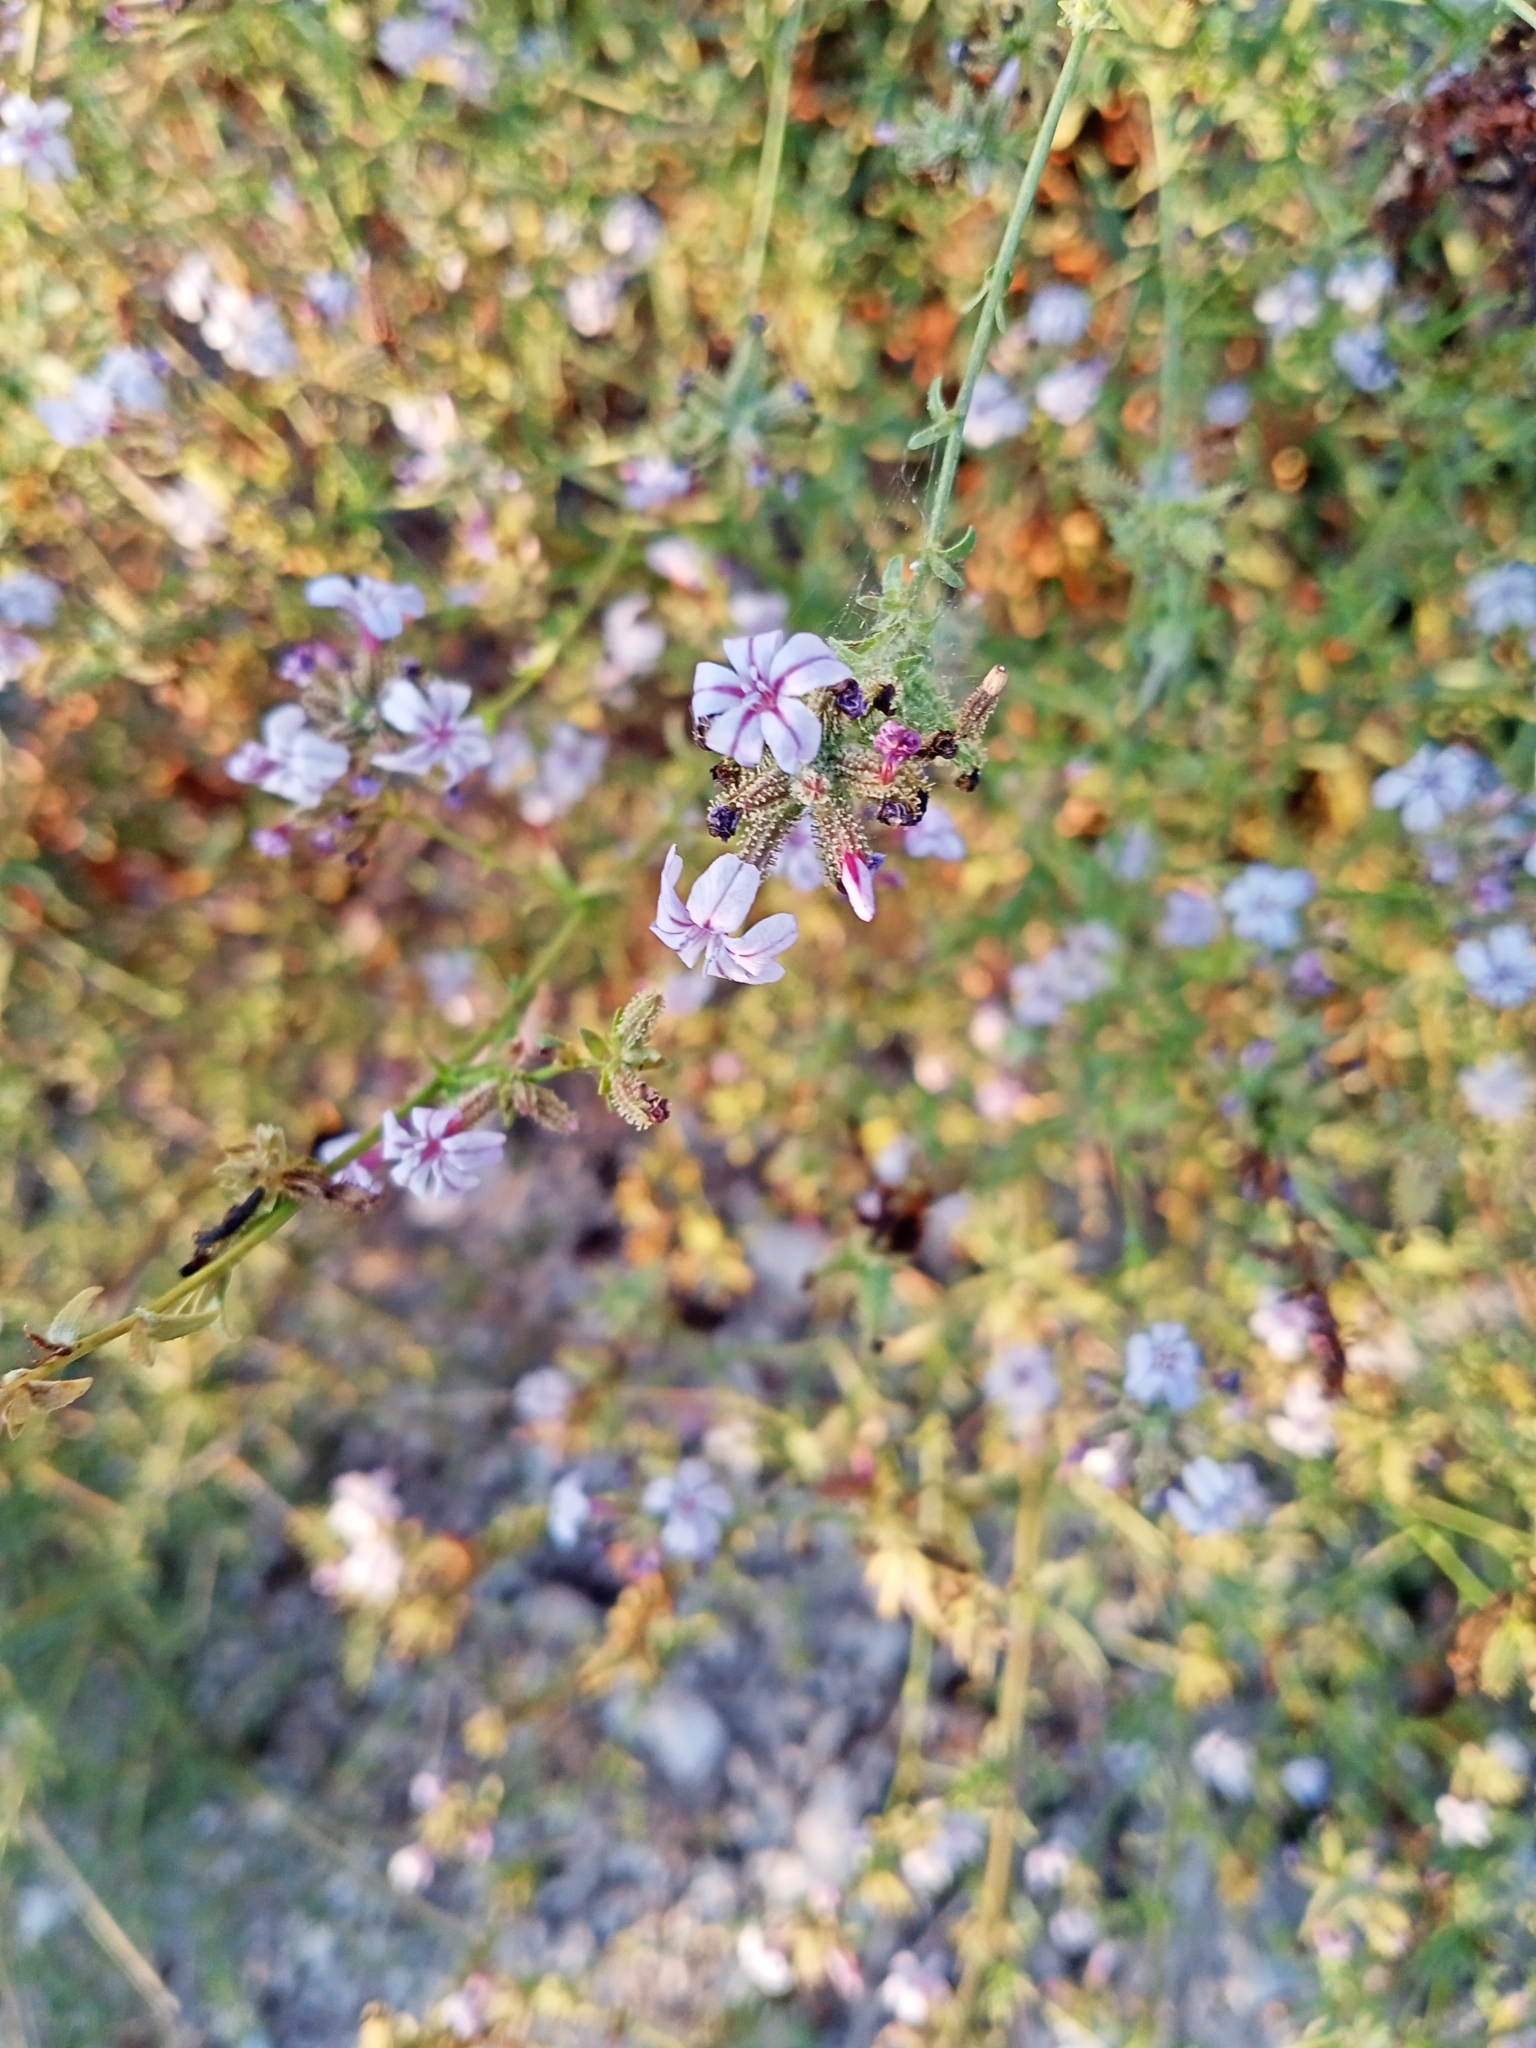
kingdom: Plantae
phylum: Tracheophyta
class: Magnoliopsida
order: Caryophyllales
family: Plumbaginaceae
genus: Plumbago
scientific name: Plumbago europaea
